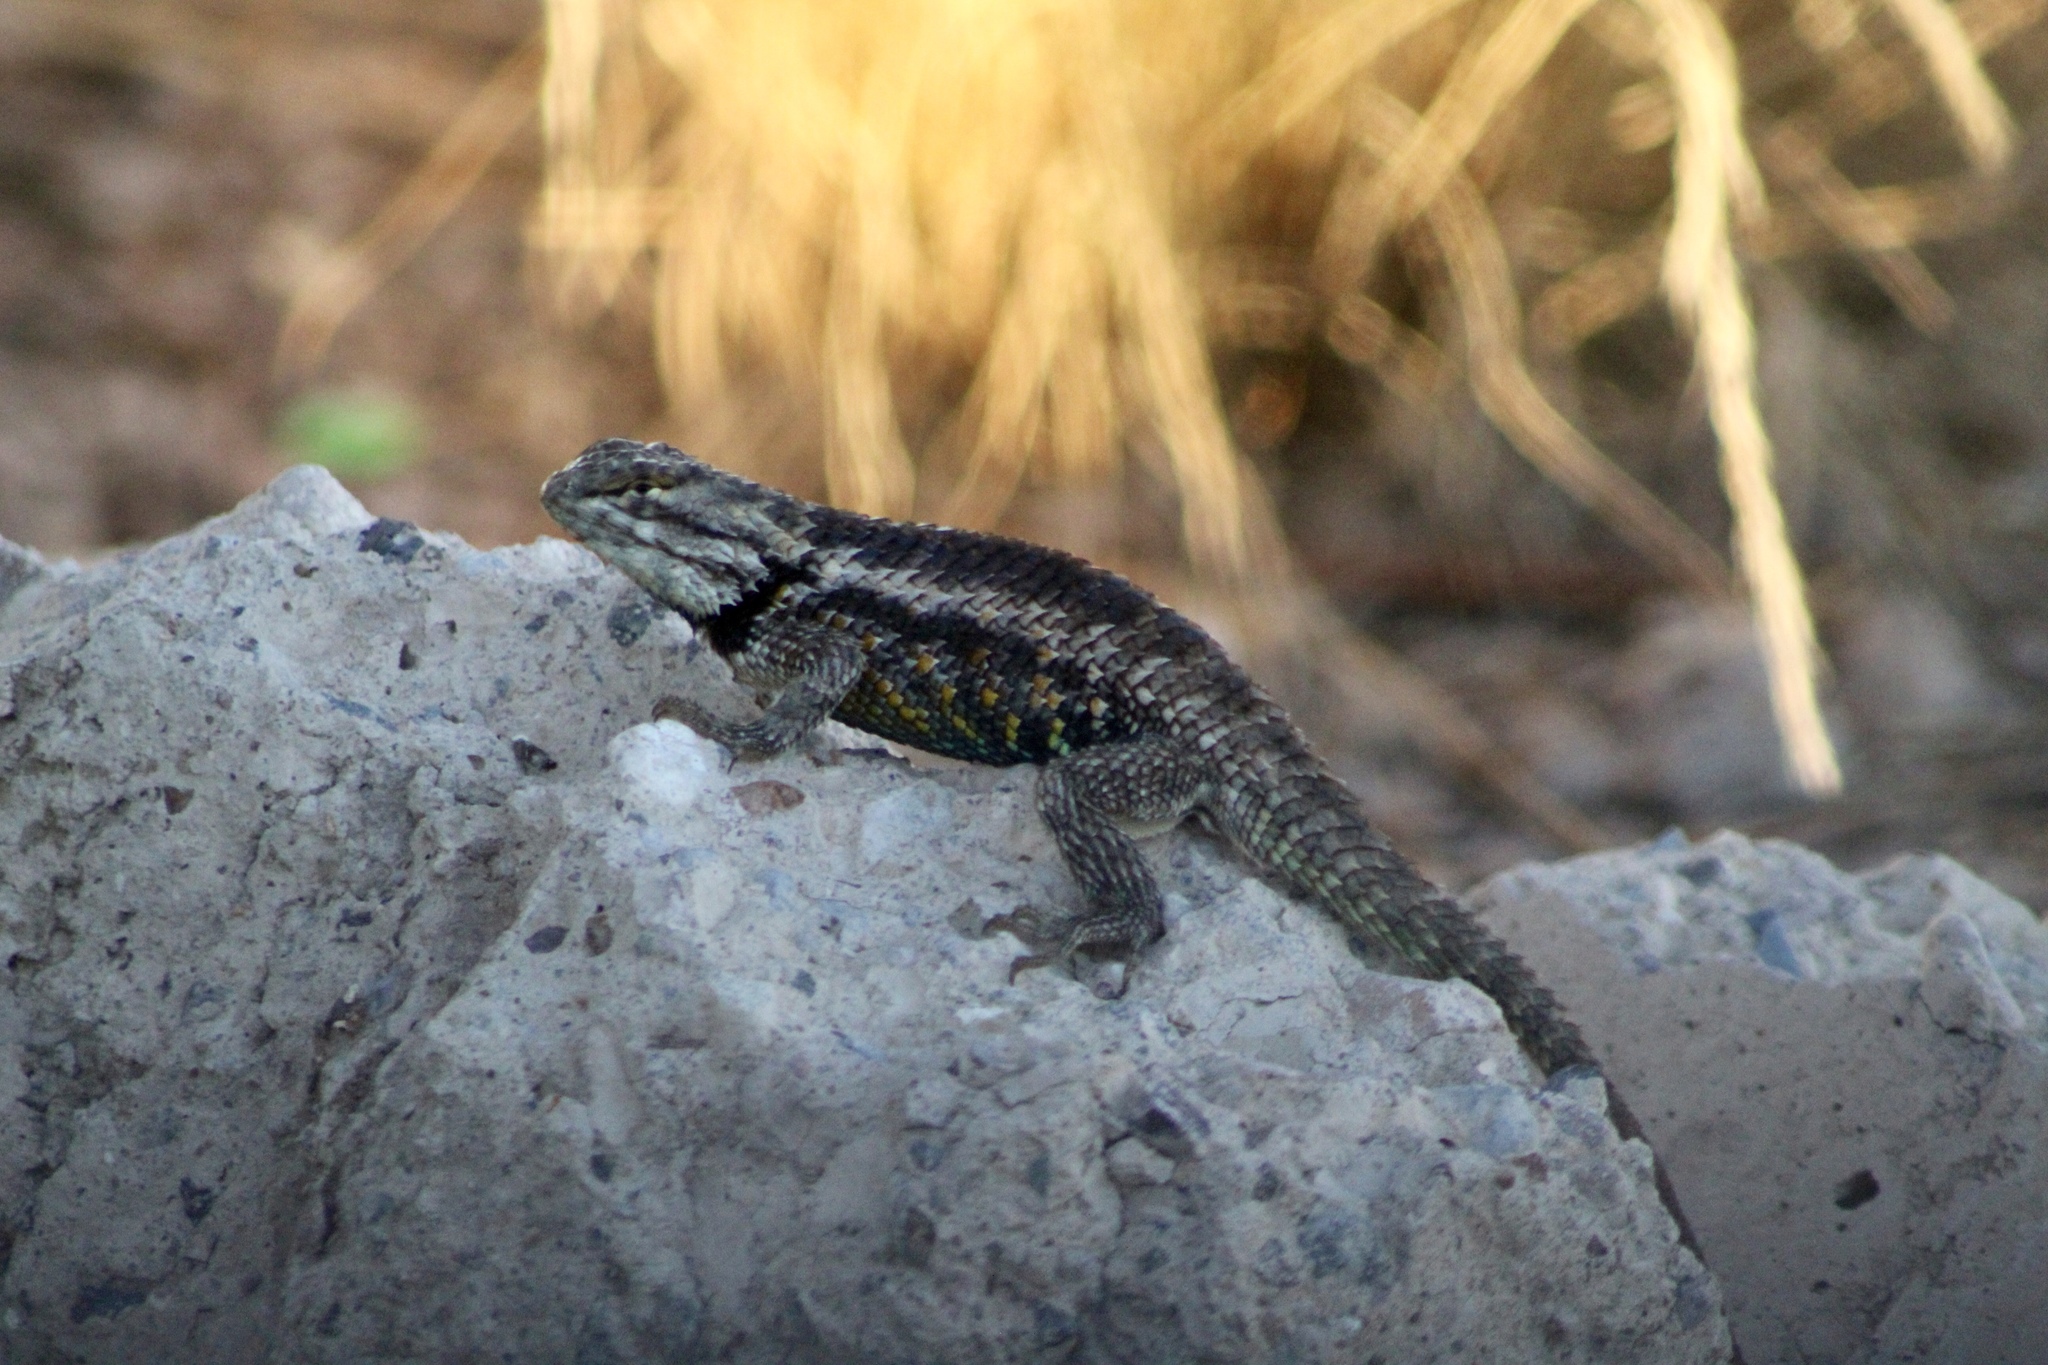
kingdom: Animalia
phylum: Chordata
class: Squamata
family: Phrynosomatidae
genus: Sceloporus
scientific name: Sceloporus magister
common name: Desert spiny lizard
